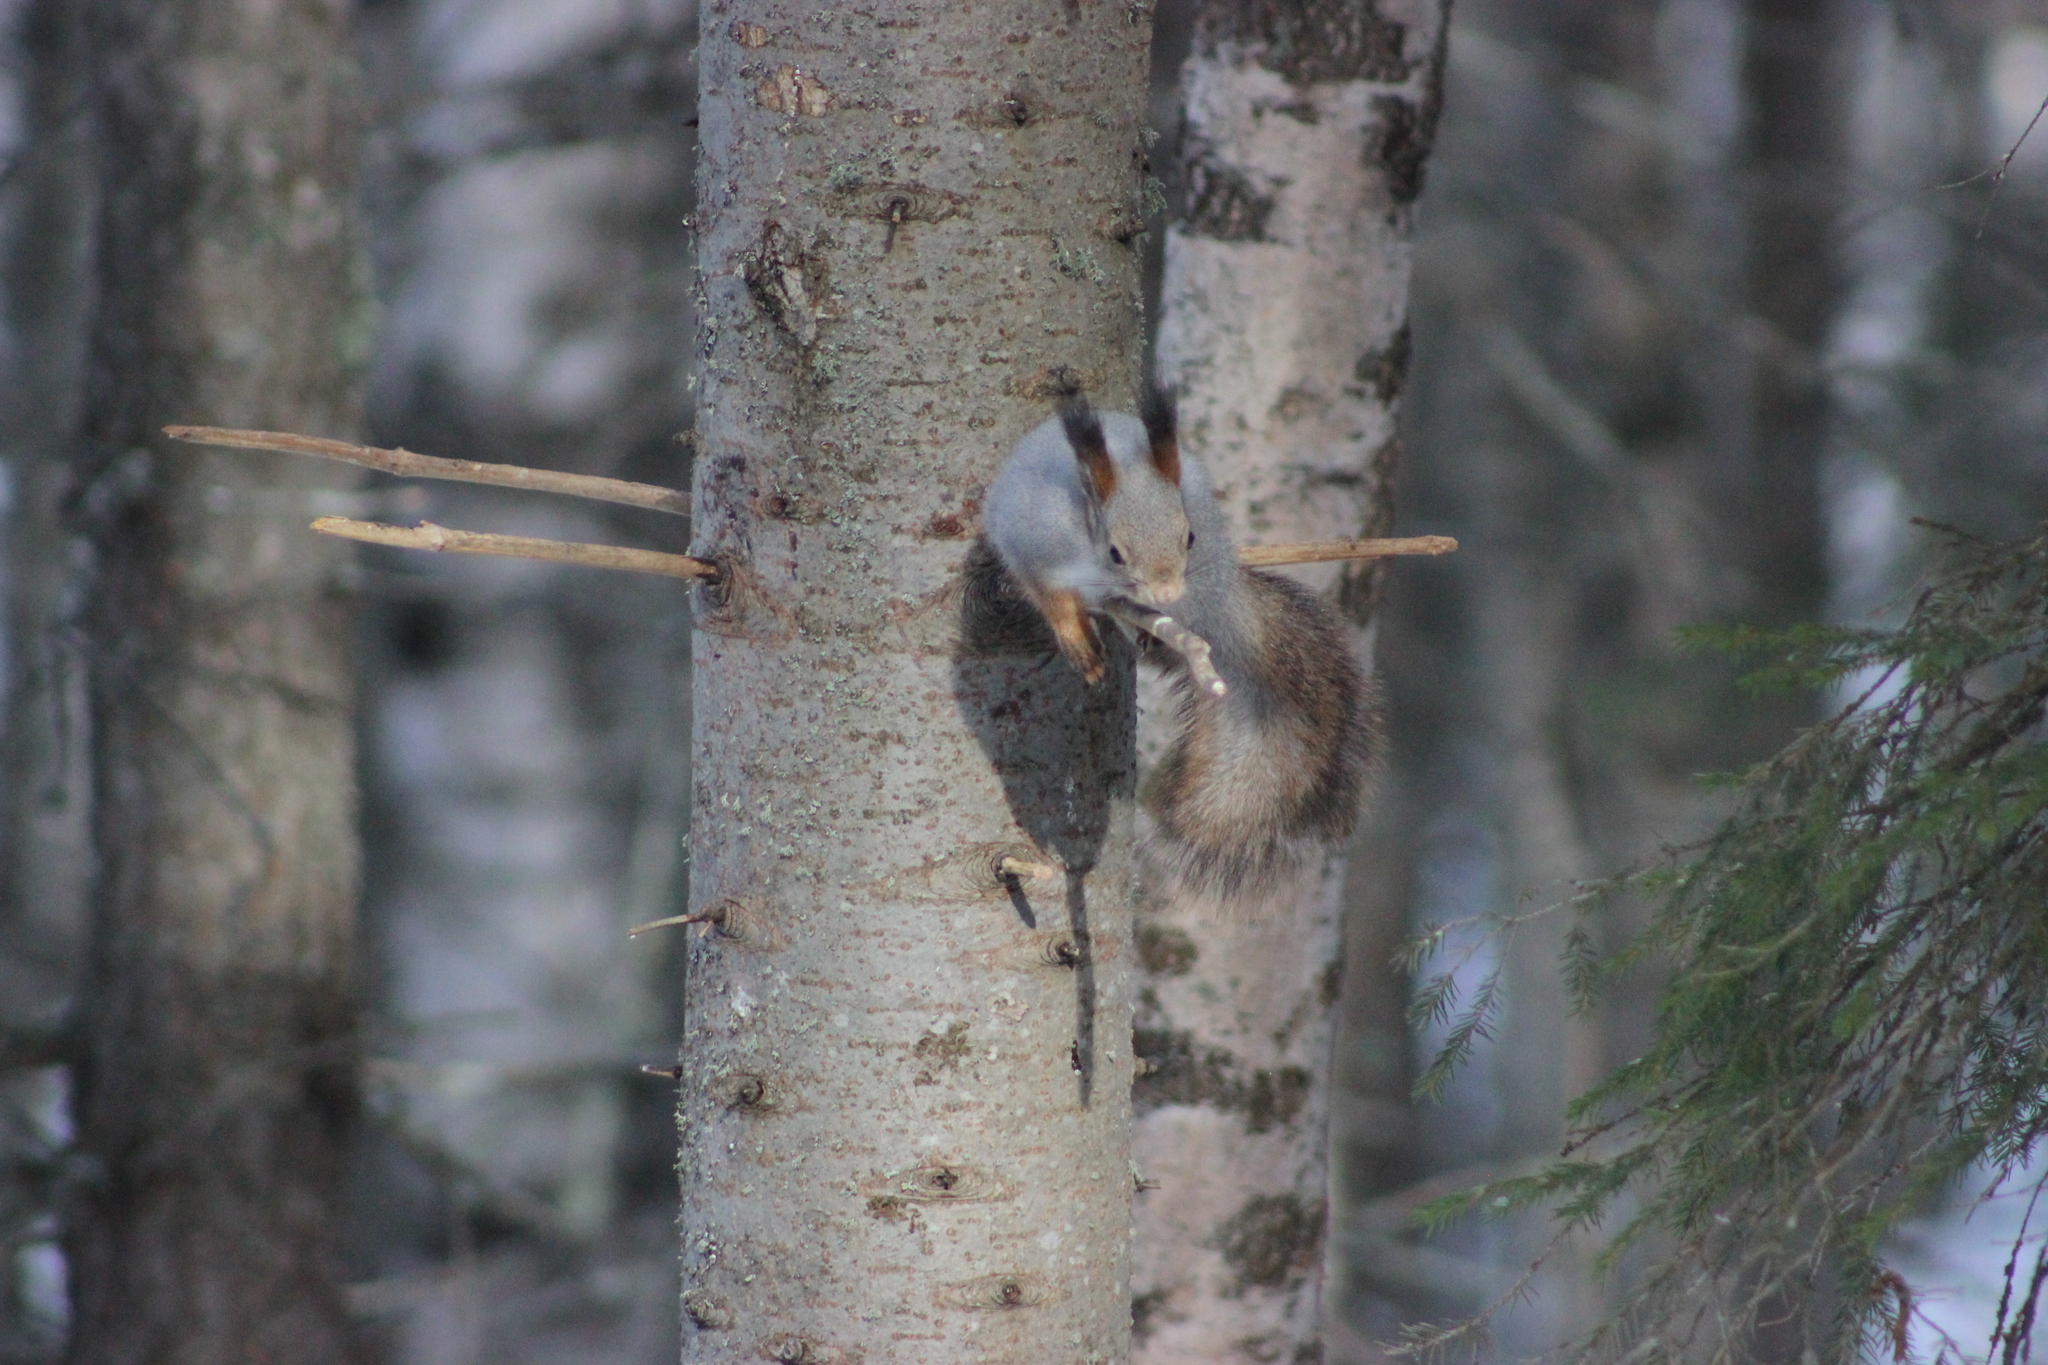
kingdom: Animalia
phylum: Chordata
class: Mammalia
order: Rodentia
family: Sciuridae
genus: Sciurus
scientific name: Sciurus vulgaris
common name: Eurasian red squirrel
